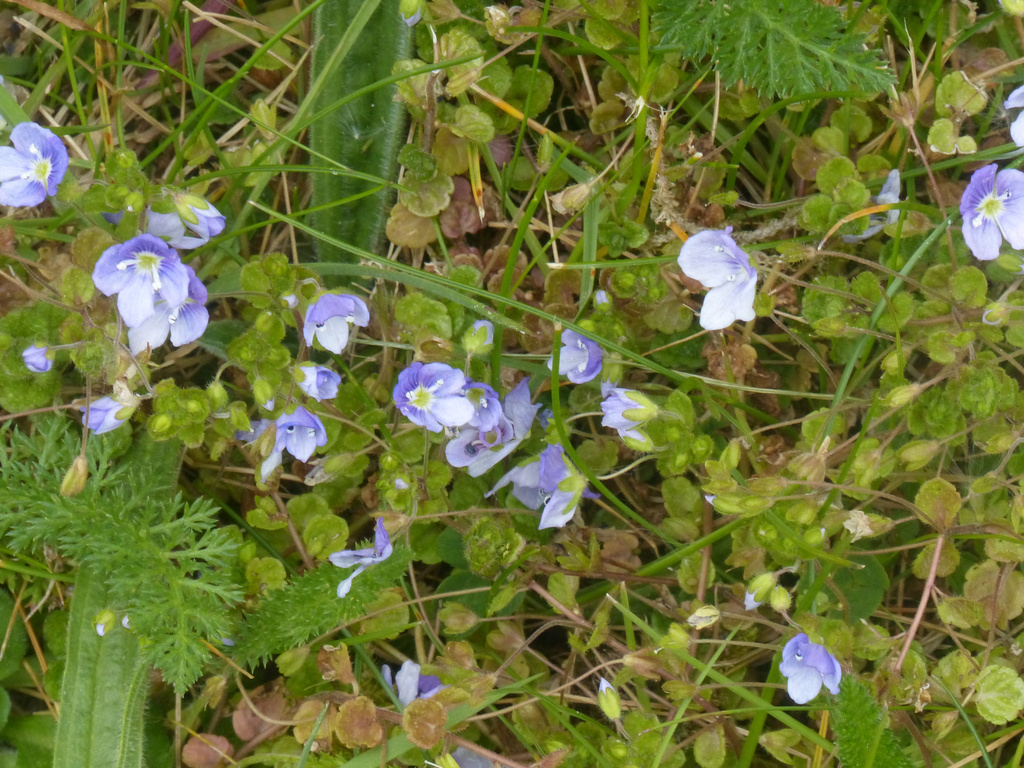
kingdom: Plantae
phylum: Tracheophyta
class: Magnoliopsida
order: Lamiales
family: Plantaginaceae
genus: Veronica
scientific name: Veronica filiformis
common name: Slender speedwell
